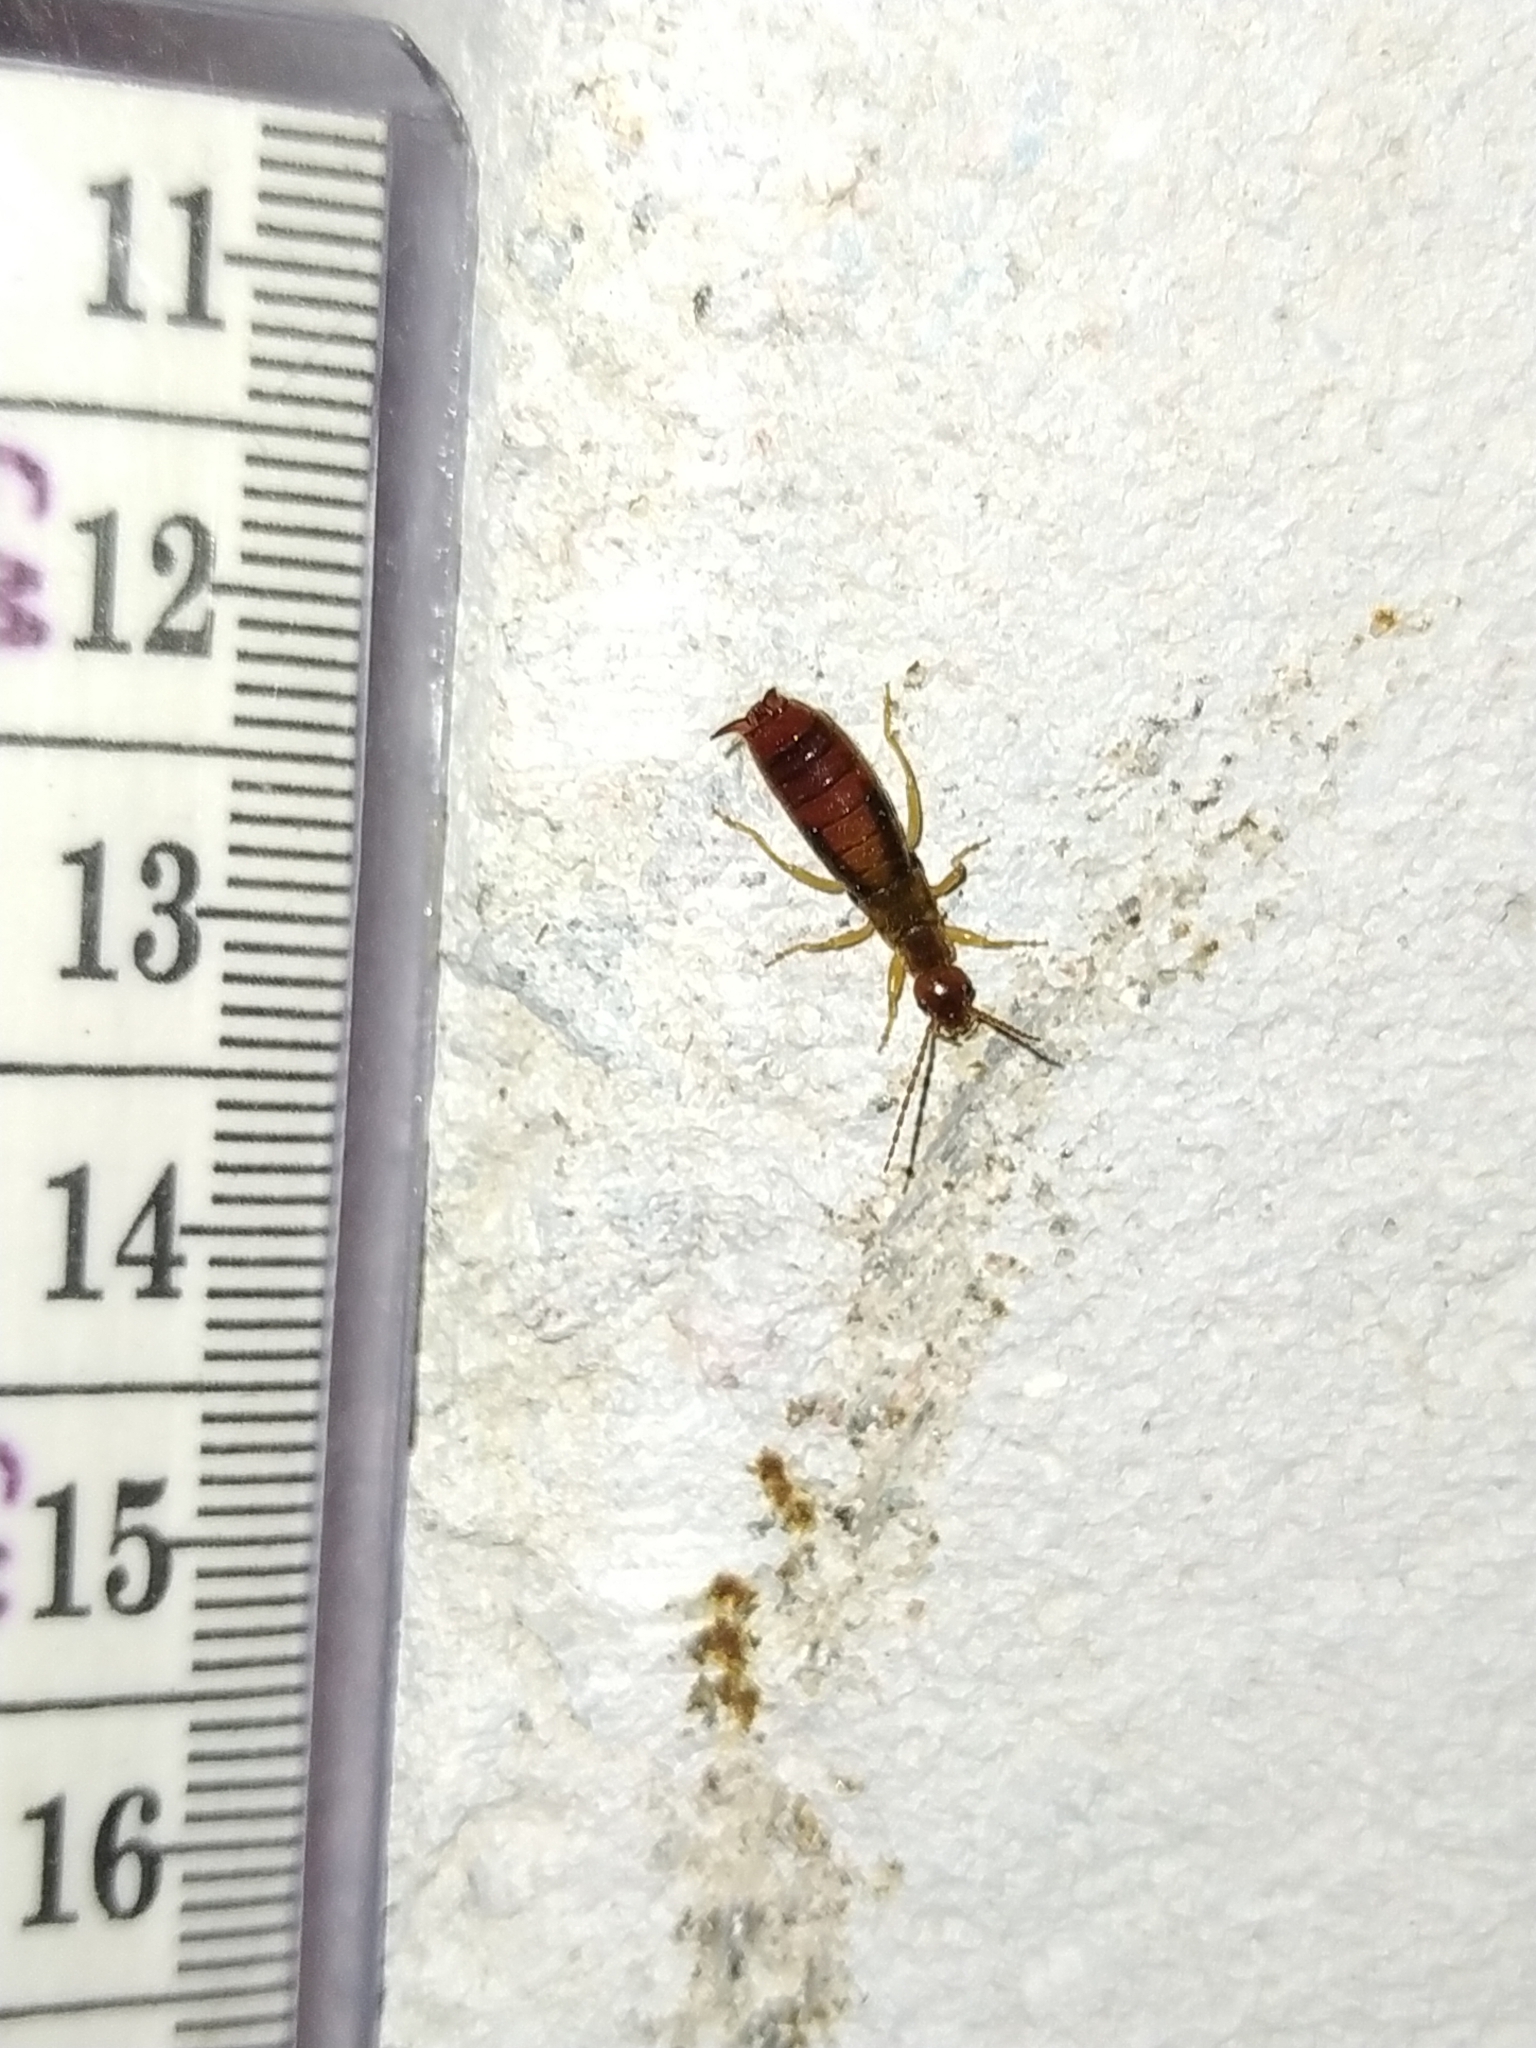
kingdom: Animalia
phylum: Arthropoda
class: Insecta
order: Dermaptera
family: Forficulidae
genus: Apterygida
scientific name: Apterygida albipennis
